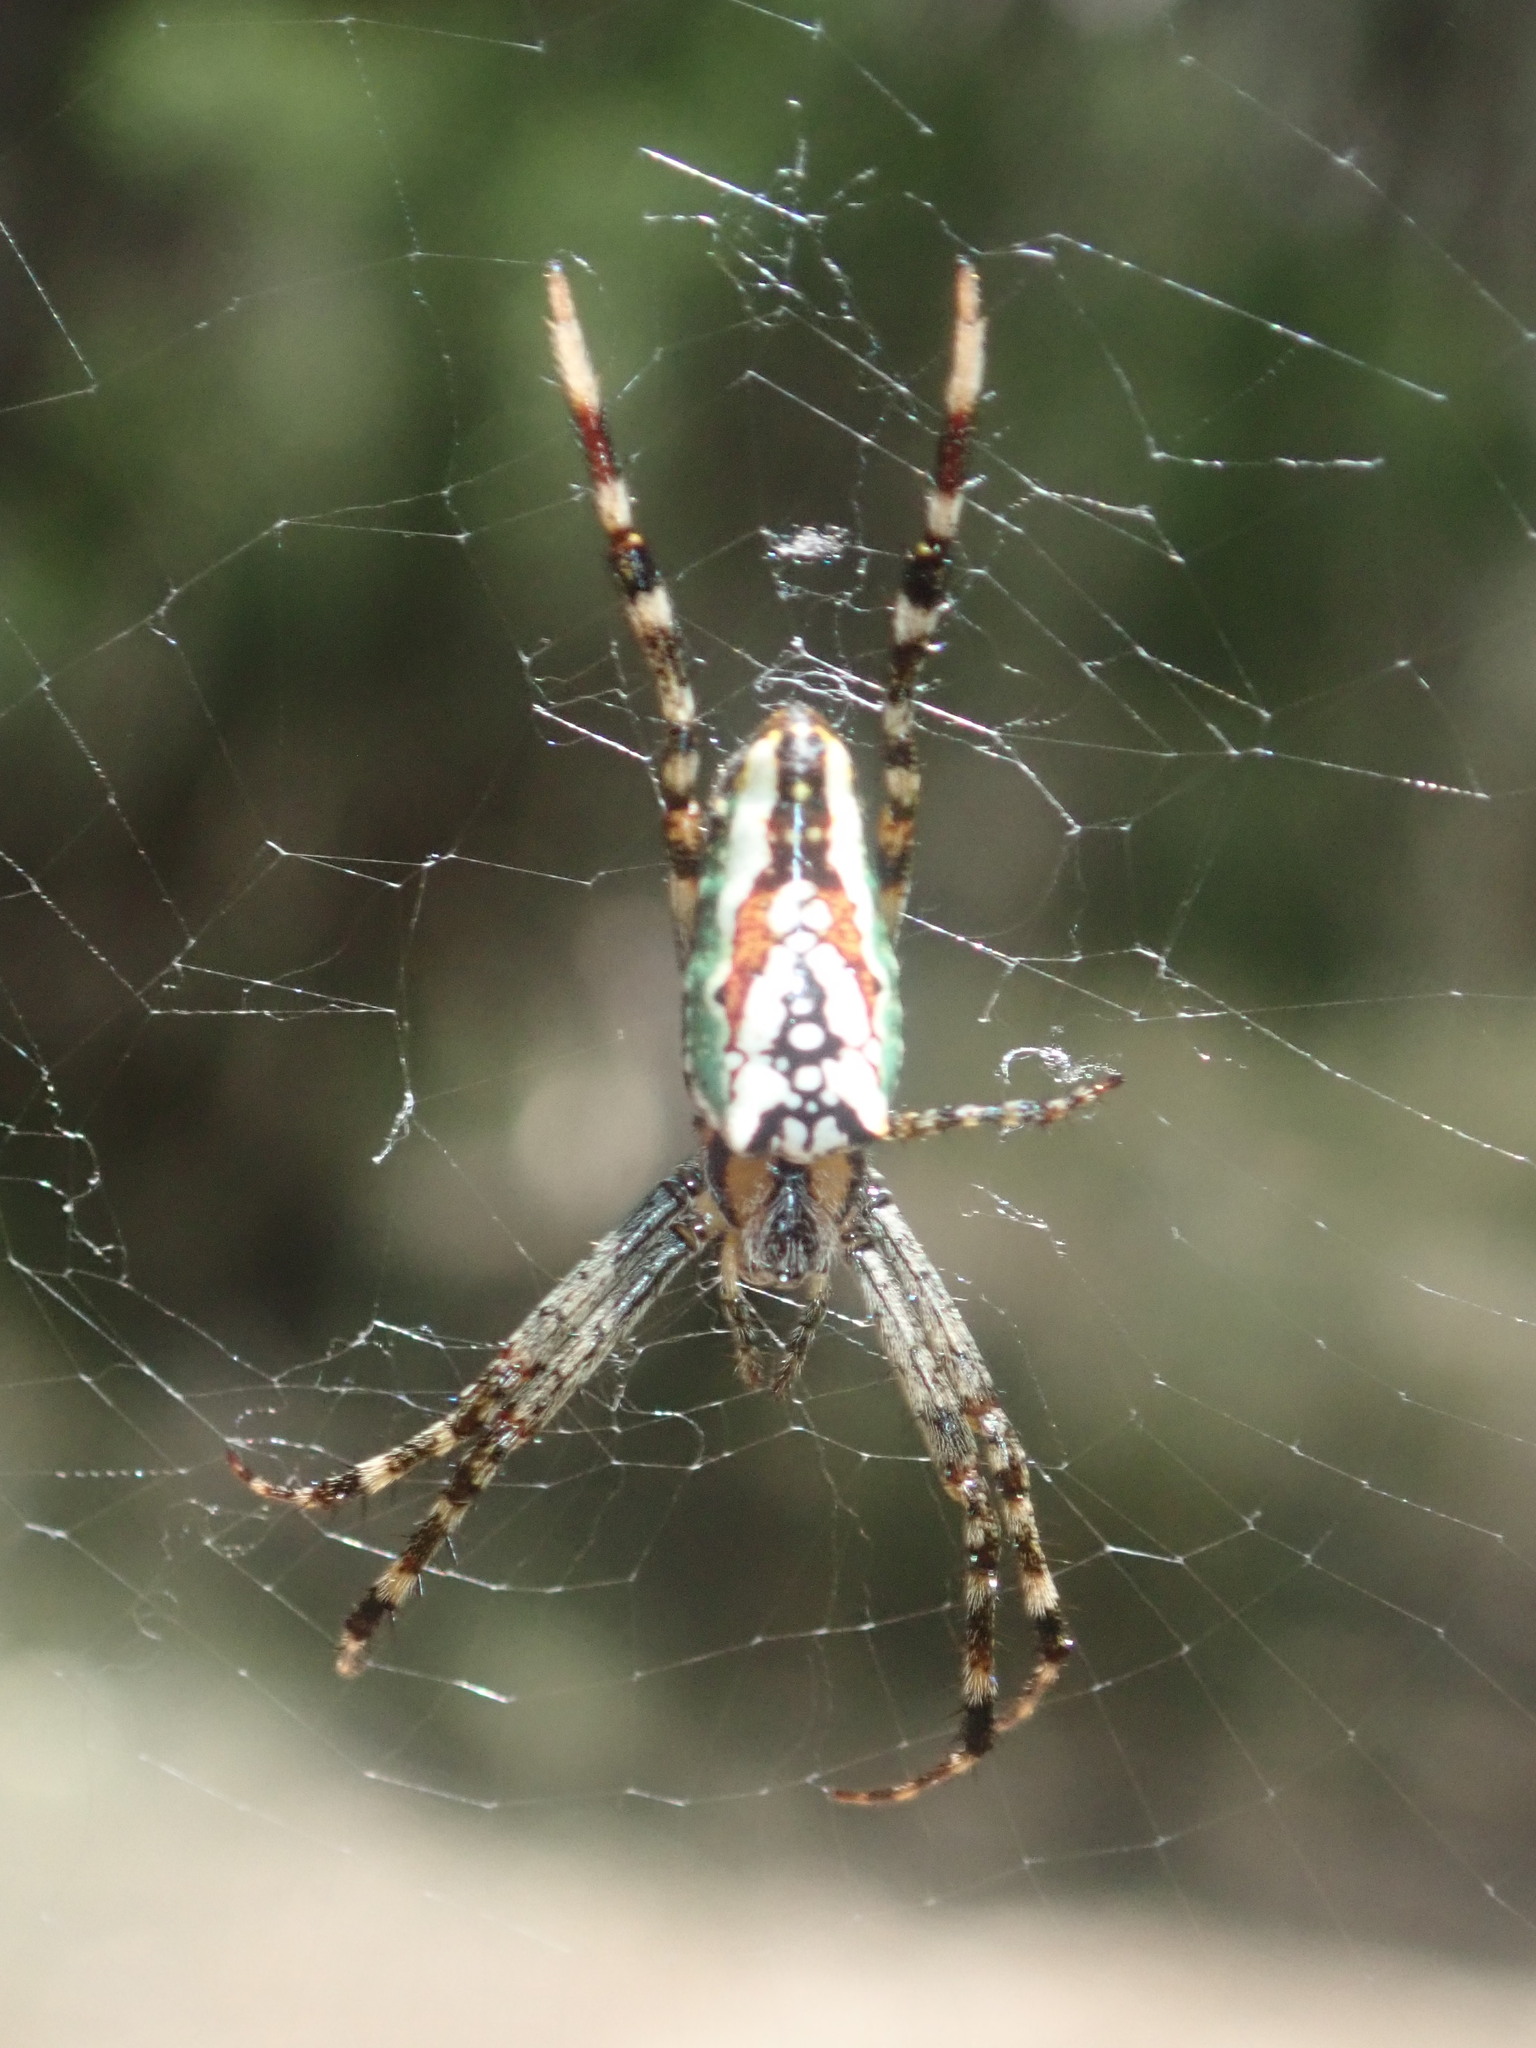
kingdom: Animalia
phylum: Arthropoda
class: Arachnida
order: Araneae
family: Araneidae
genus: Plebs
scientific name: Plebs bradleyi
